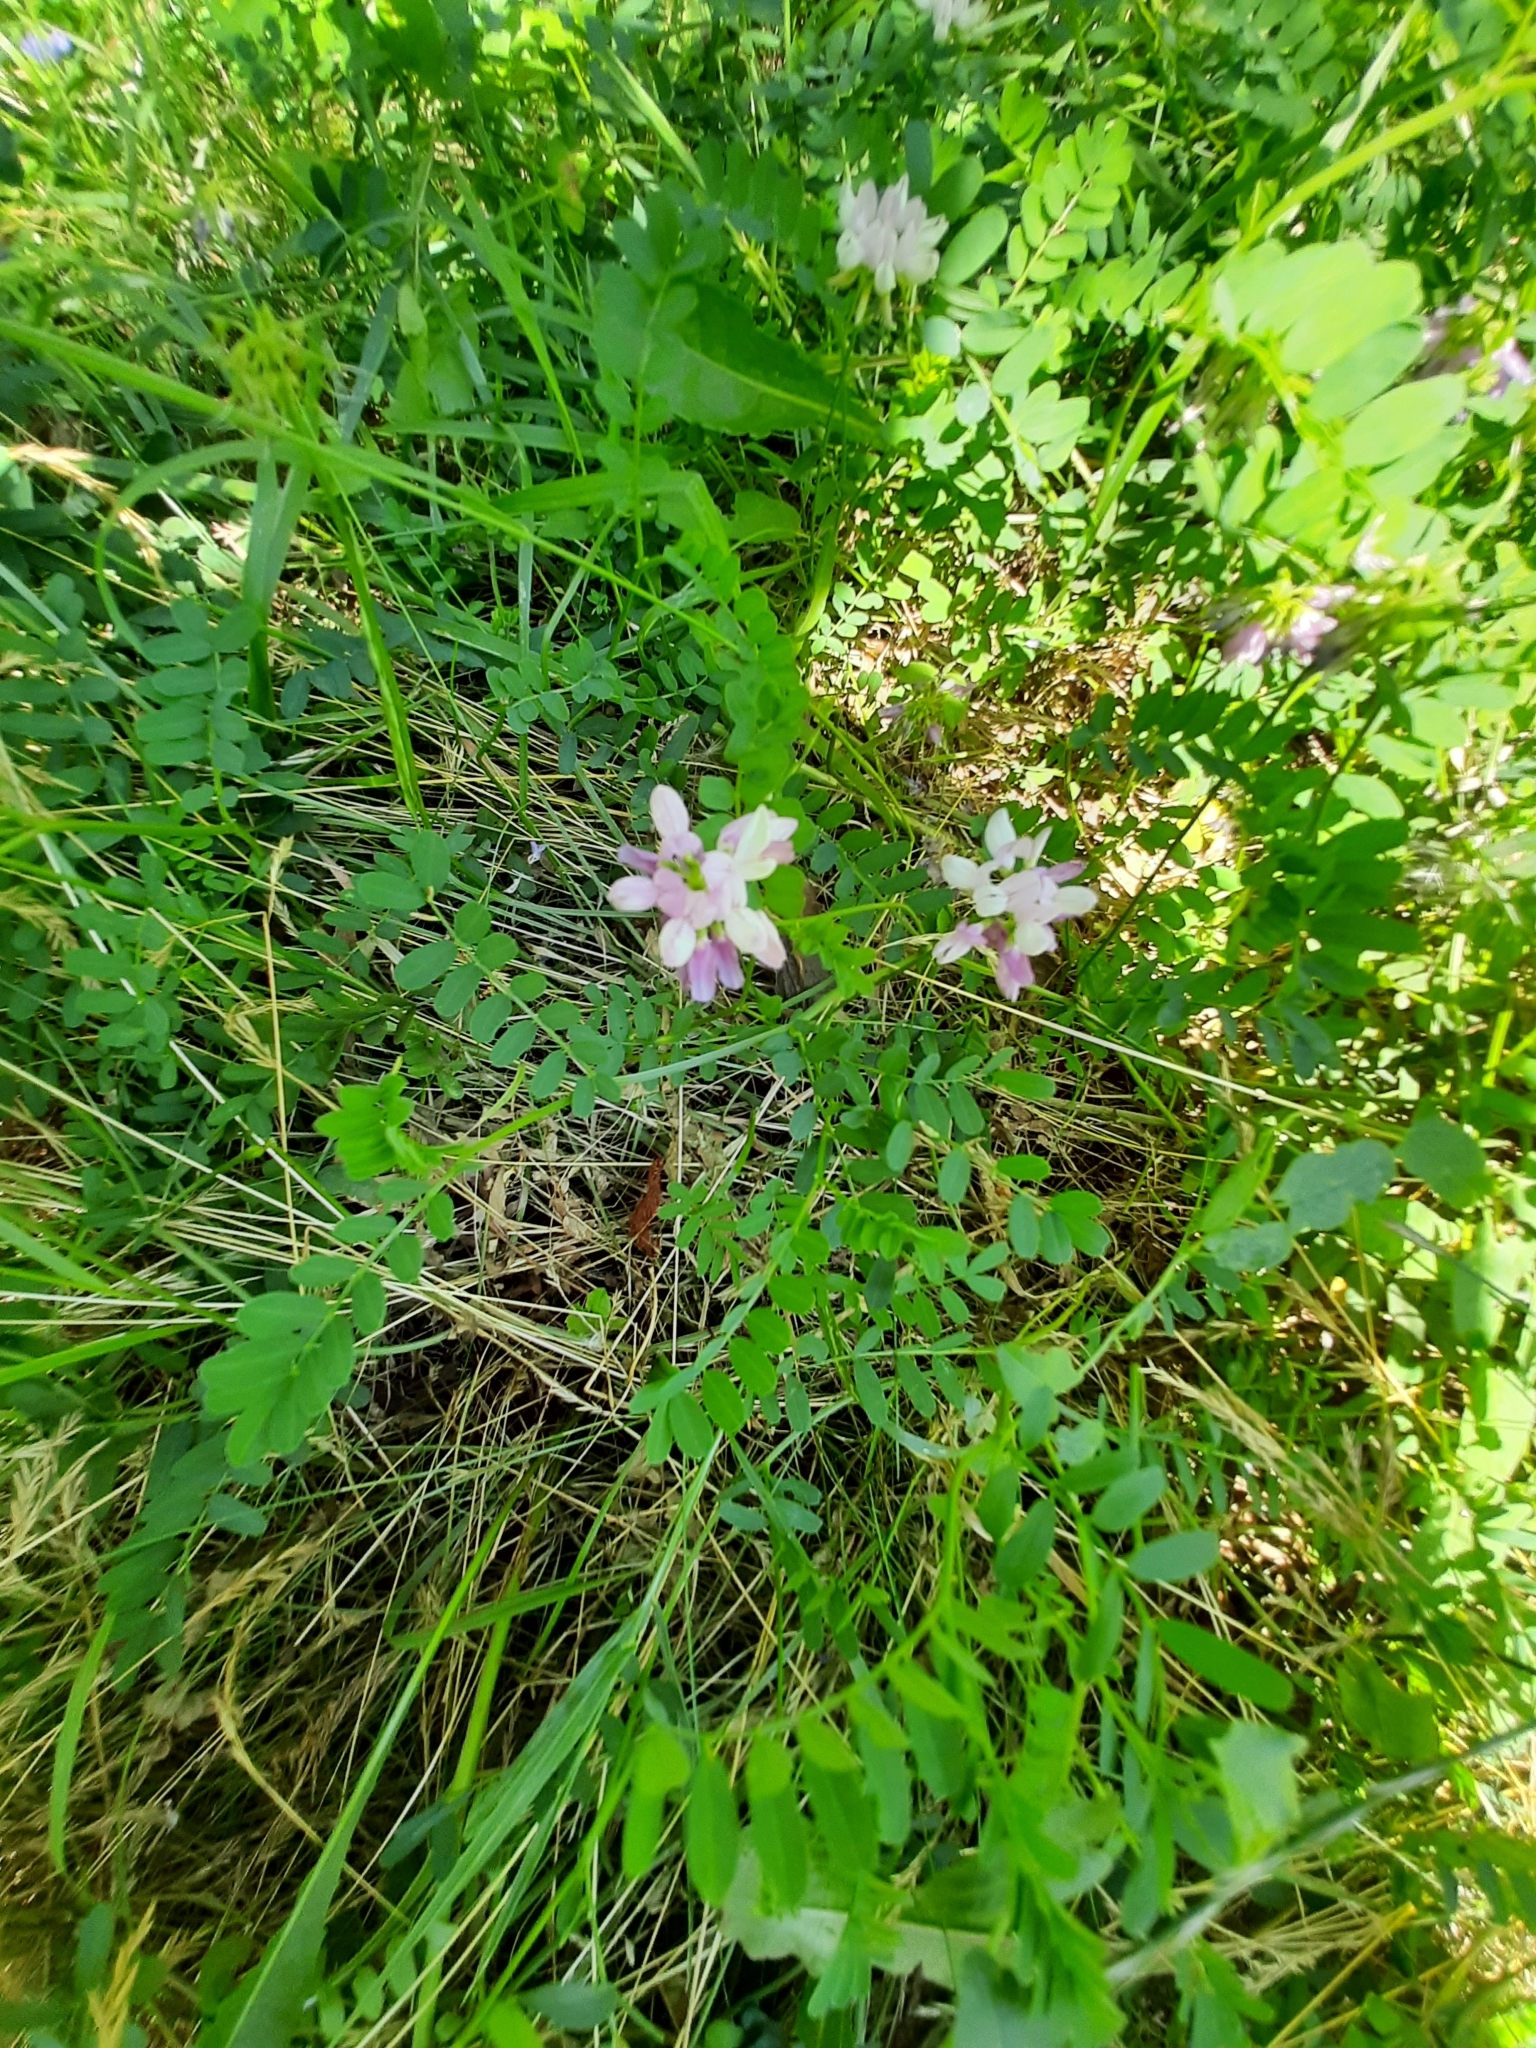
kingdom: Plantae
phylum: Tracheophyta
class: Magnoliopsida
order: Fabales
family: Fabaceae
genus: Coronilla
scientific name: Coronilla varia
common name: Crownvetch
